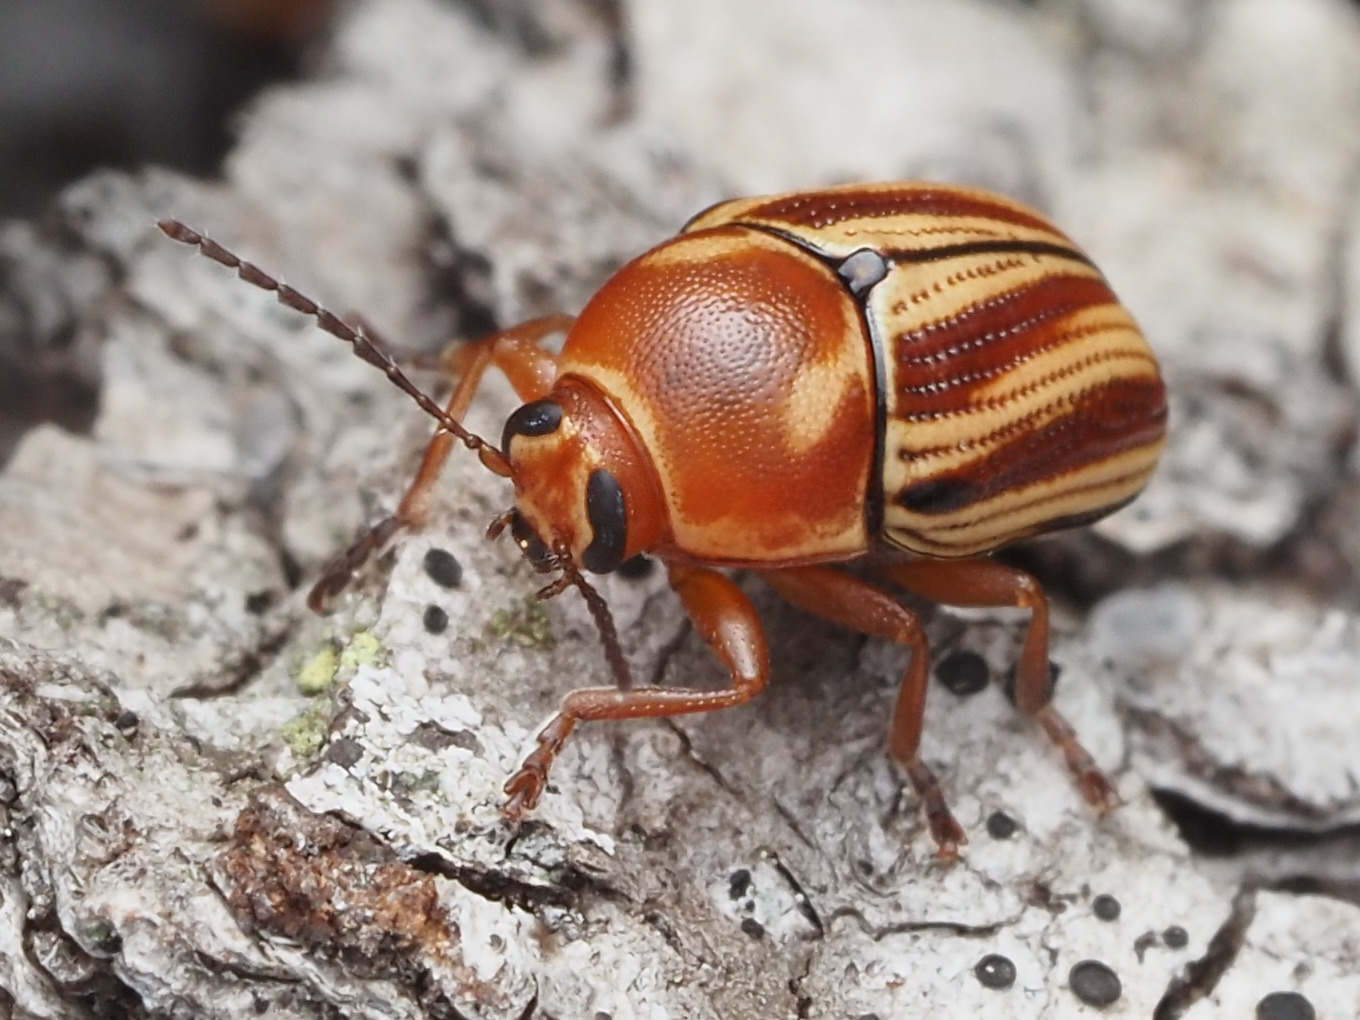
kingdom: Animalia
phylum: Arthropoda
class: Insecta
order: Coleoptera
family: Chrysomelidae
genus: Cryptocephalus
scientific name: Cryptocephalus obsoletus
